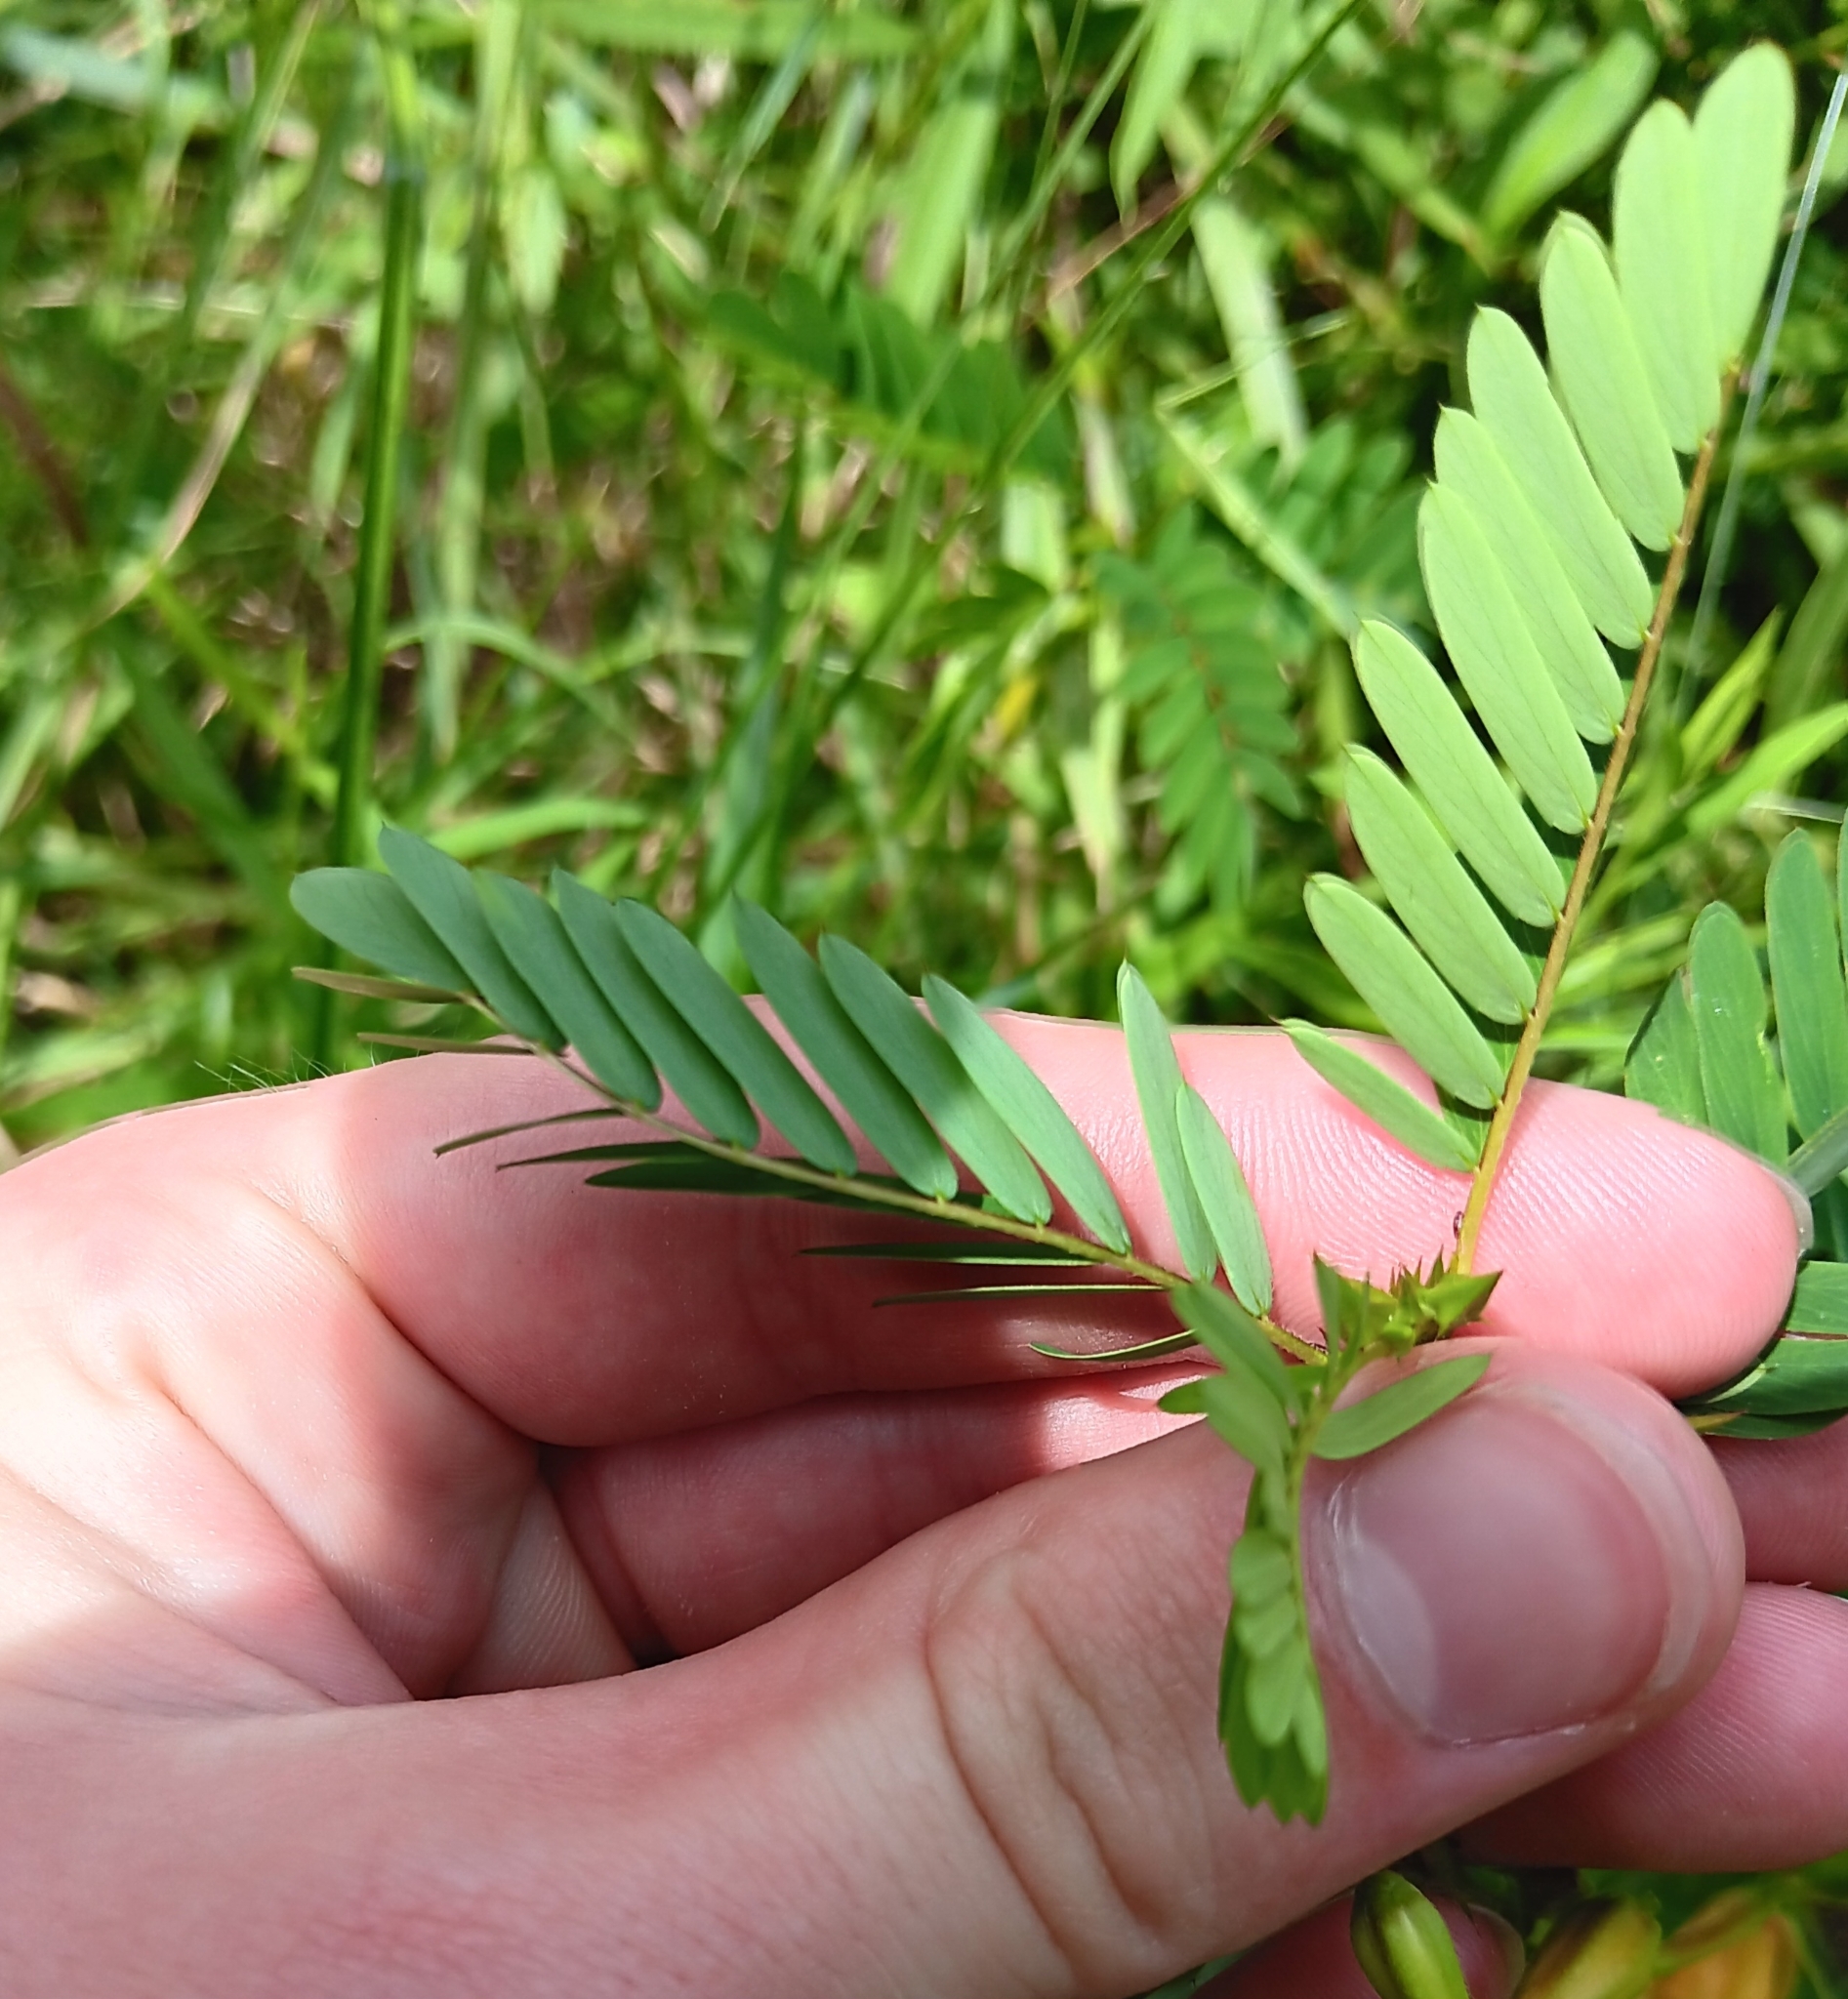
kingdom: Plantae
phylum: Tracheophyta
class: Magnoliopsida
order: Fabales
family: Fabaceae
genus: Chamaecrista
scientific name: Chamaecrista fasciculata
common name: Golden cassia
